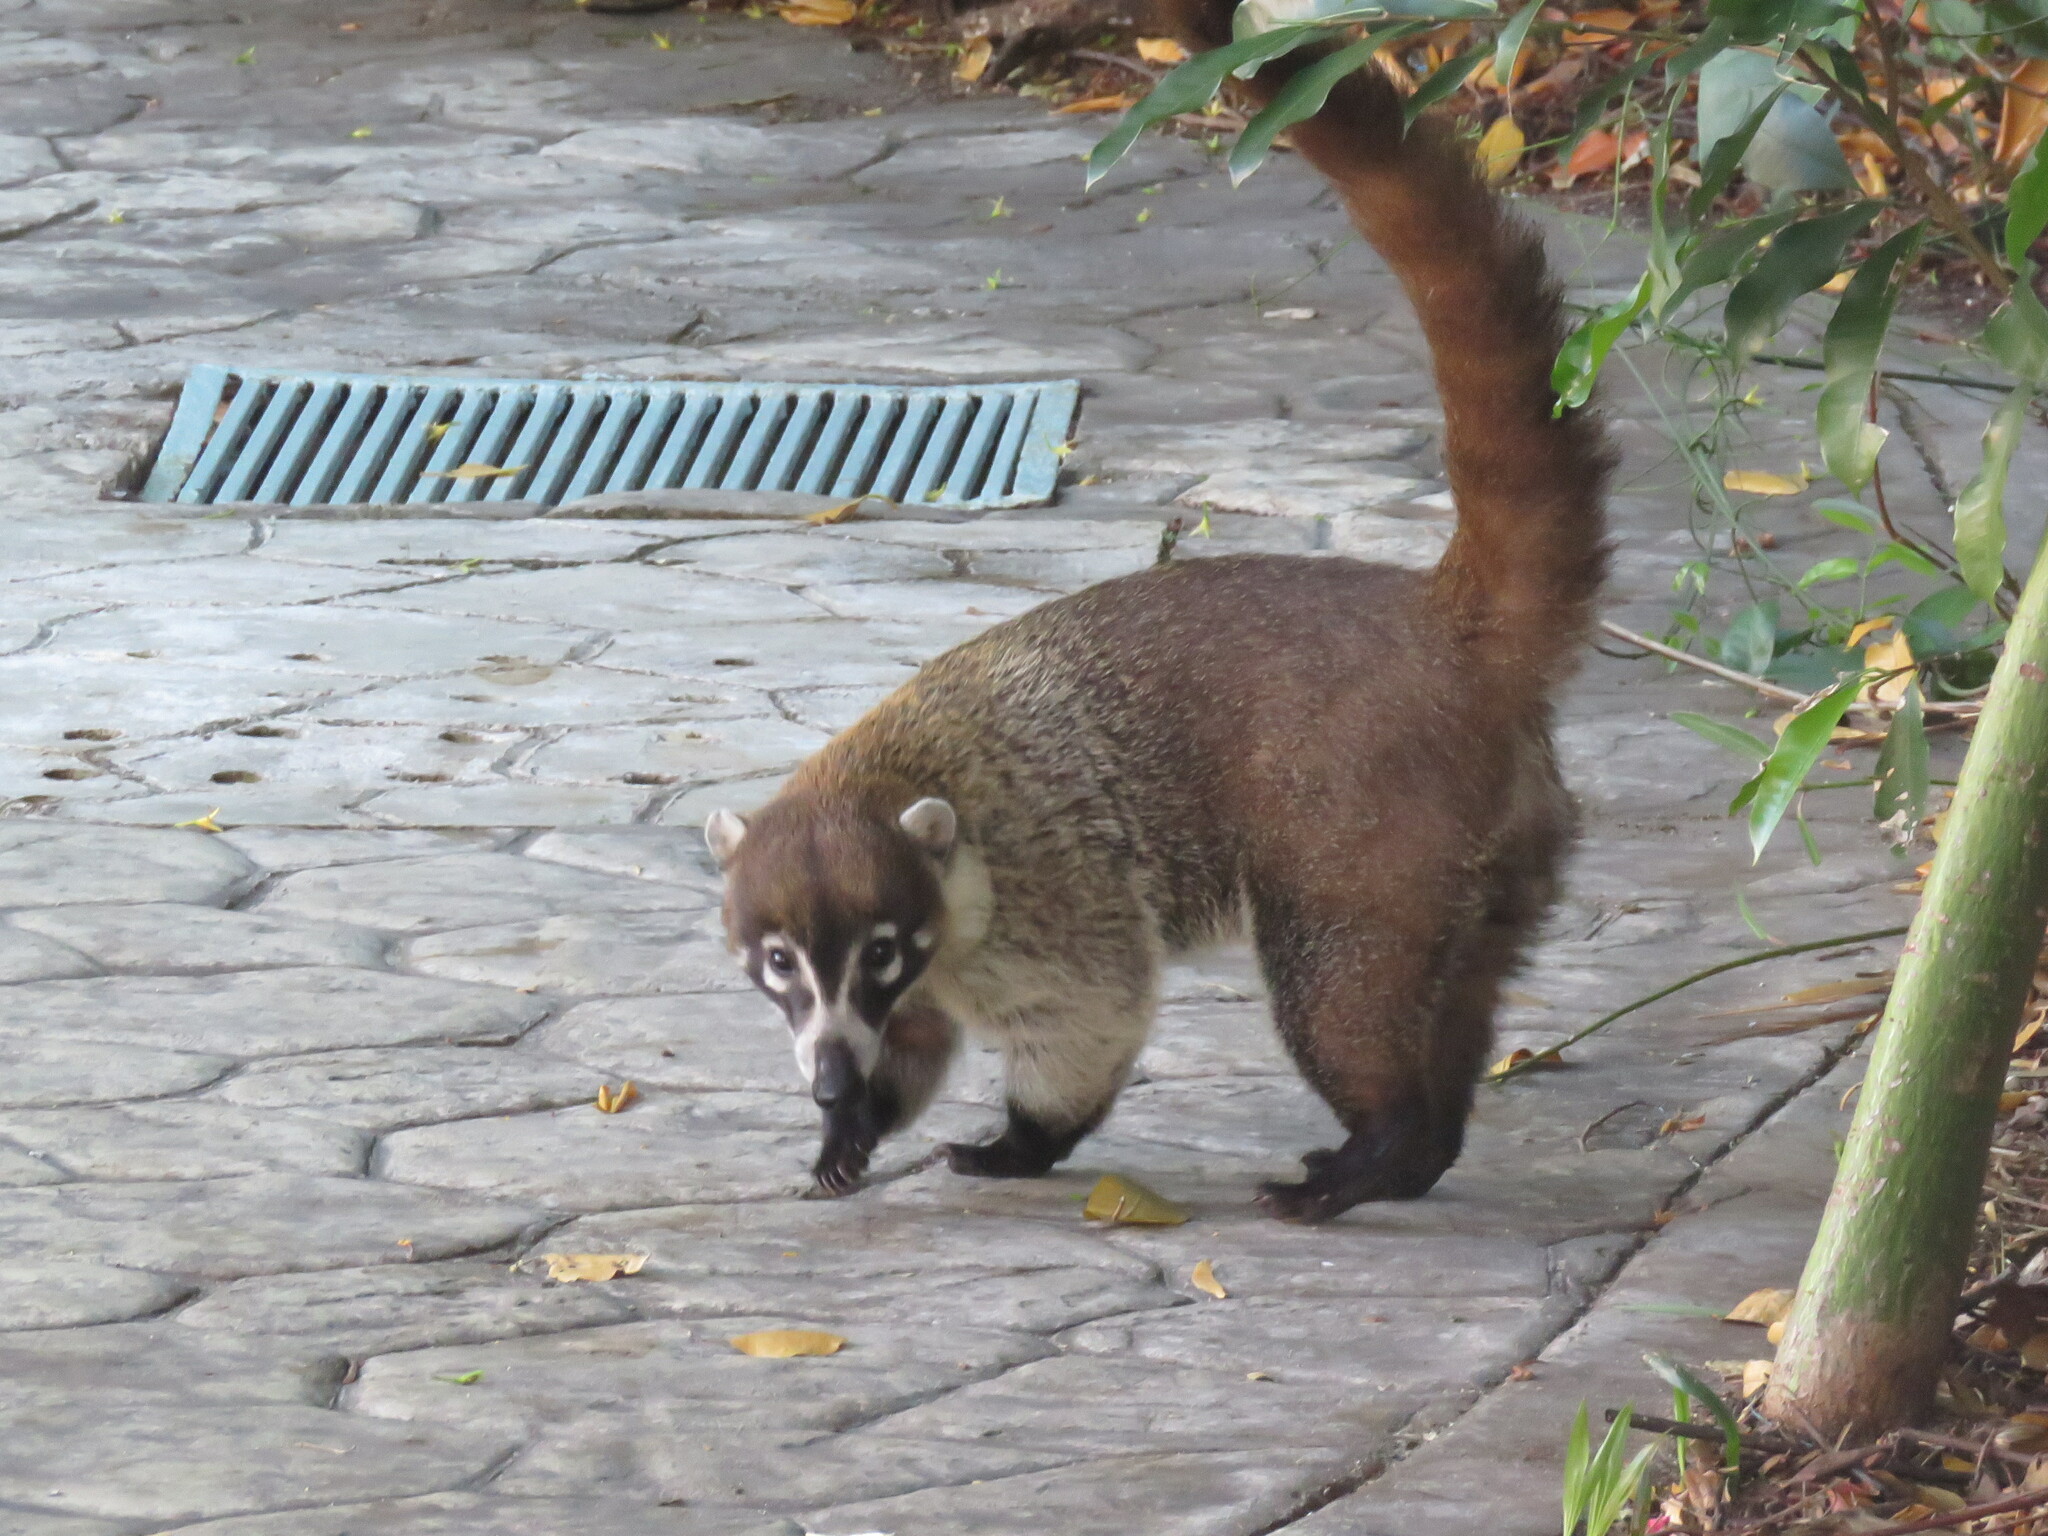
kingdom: Animalia
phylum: Chordata
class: Mammalia
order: Carnivora
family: Procyonidae
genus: Nasua
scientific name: Nasua narica
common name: White-nosed coati
